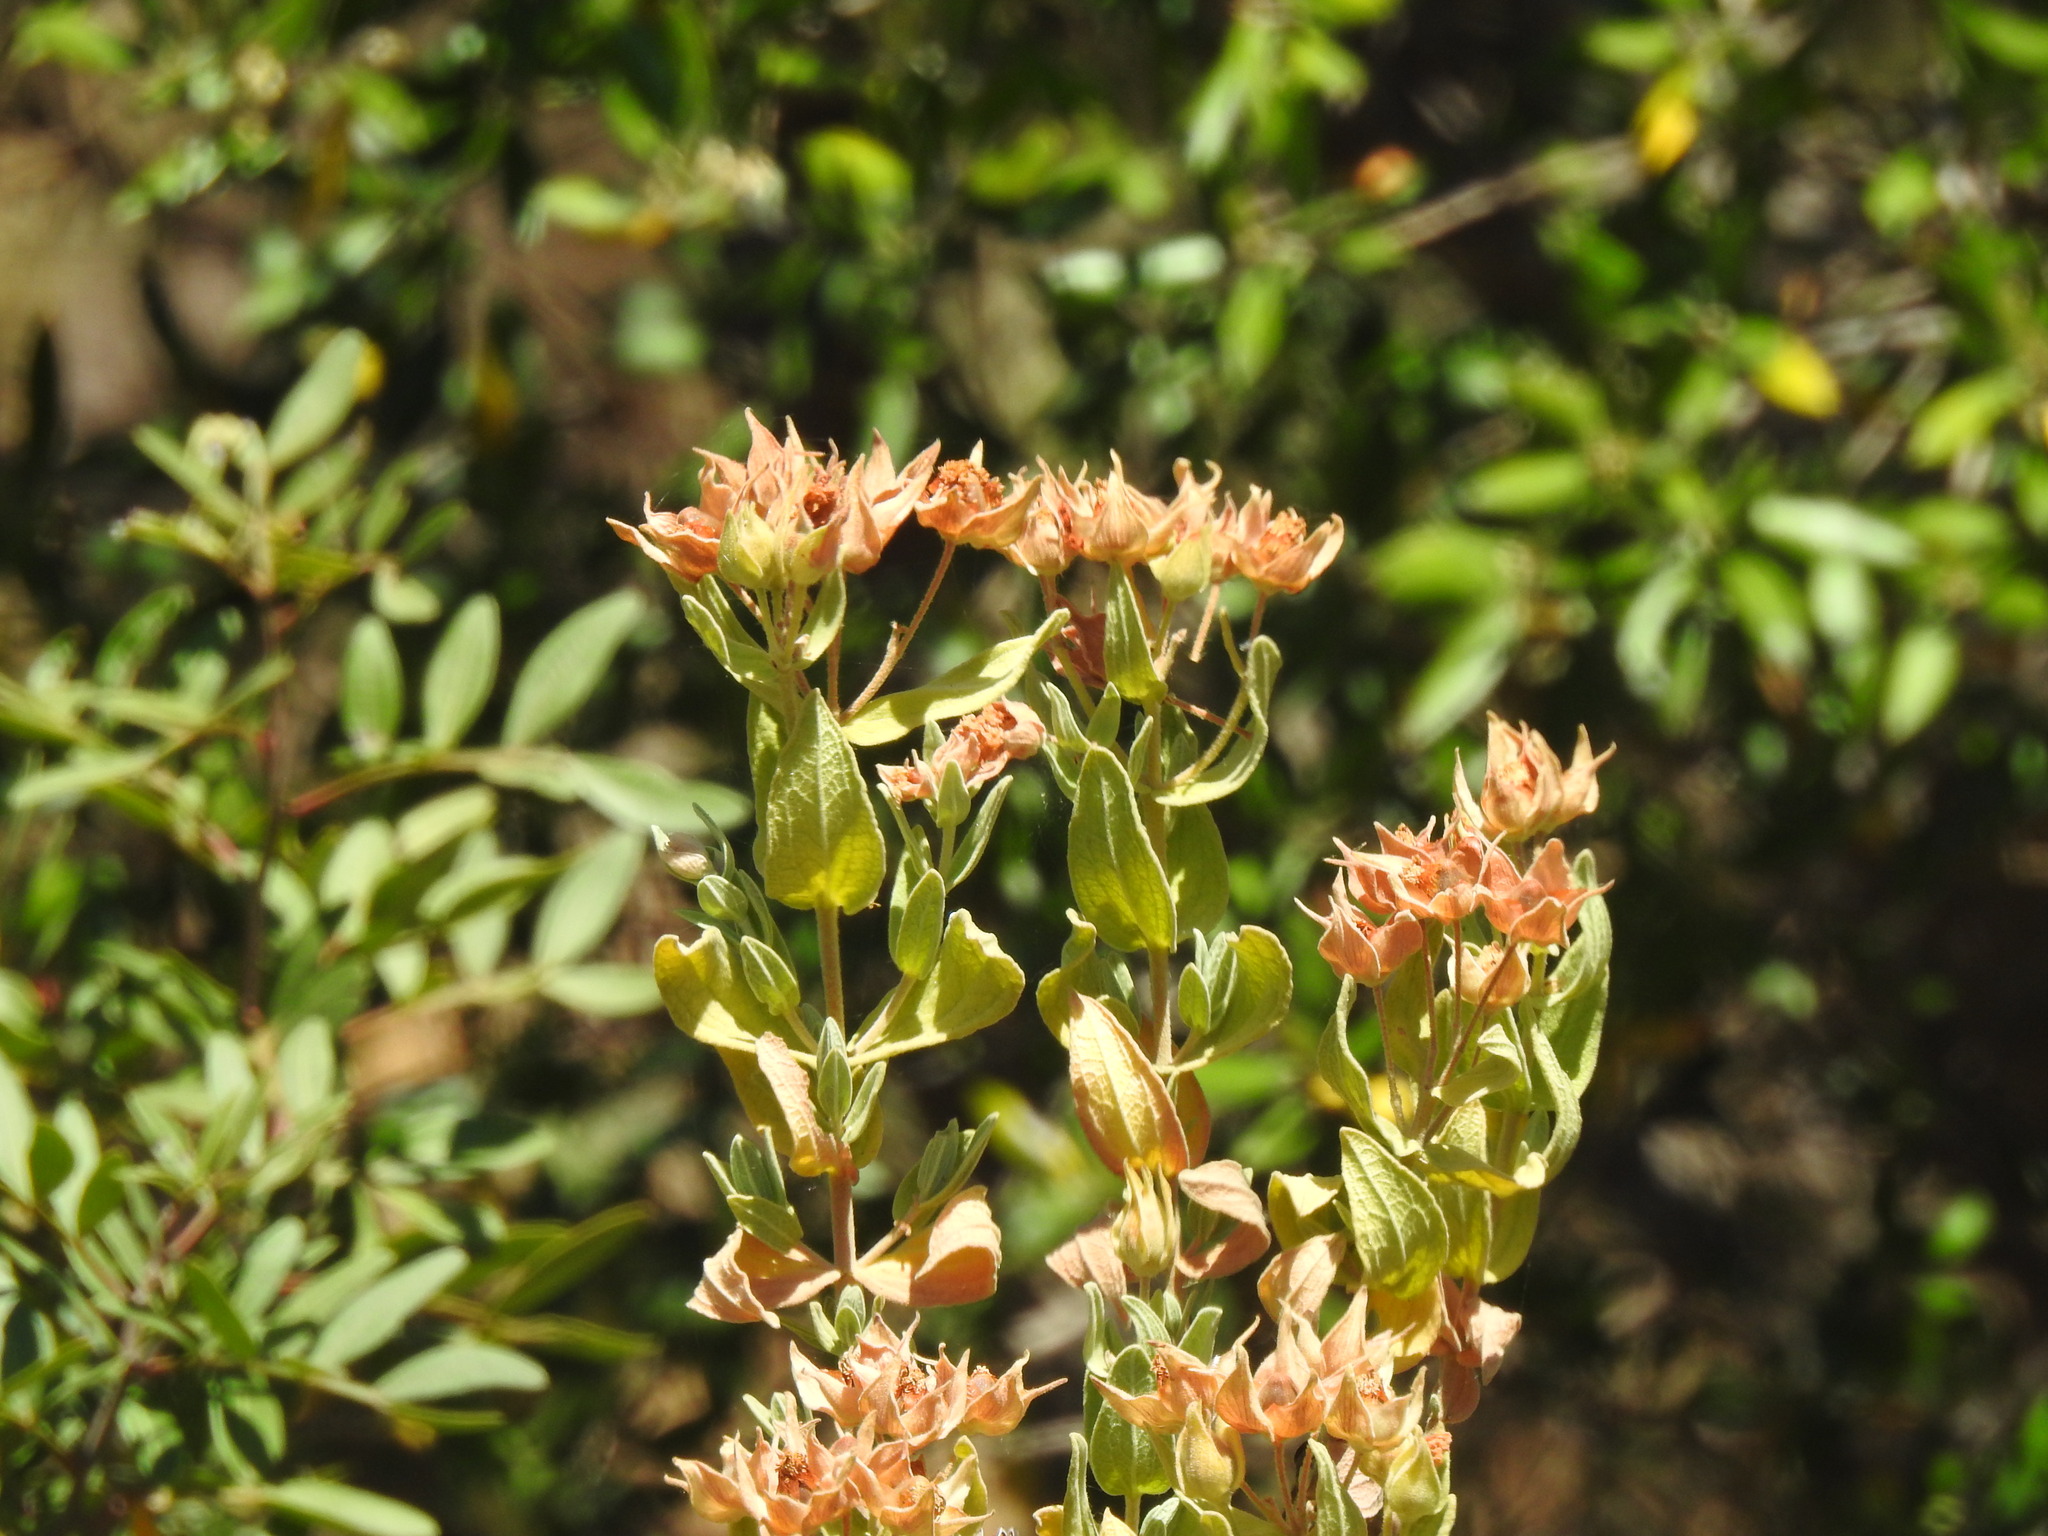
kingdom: Plantae
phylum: Tracheophyta
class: Magnoliopsida
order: Malvales
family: Cistaceae
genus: Cistus
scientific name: Cistus albidus
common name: White-leaf rock-rose
